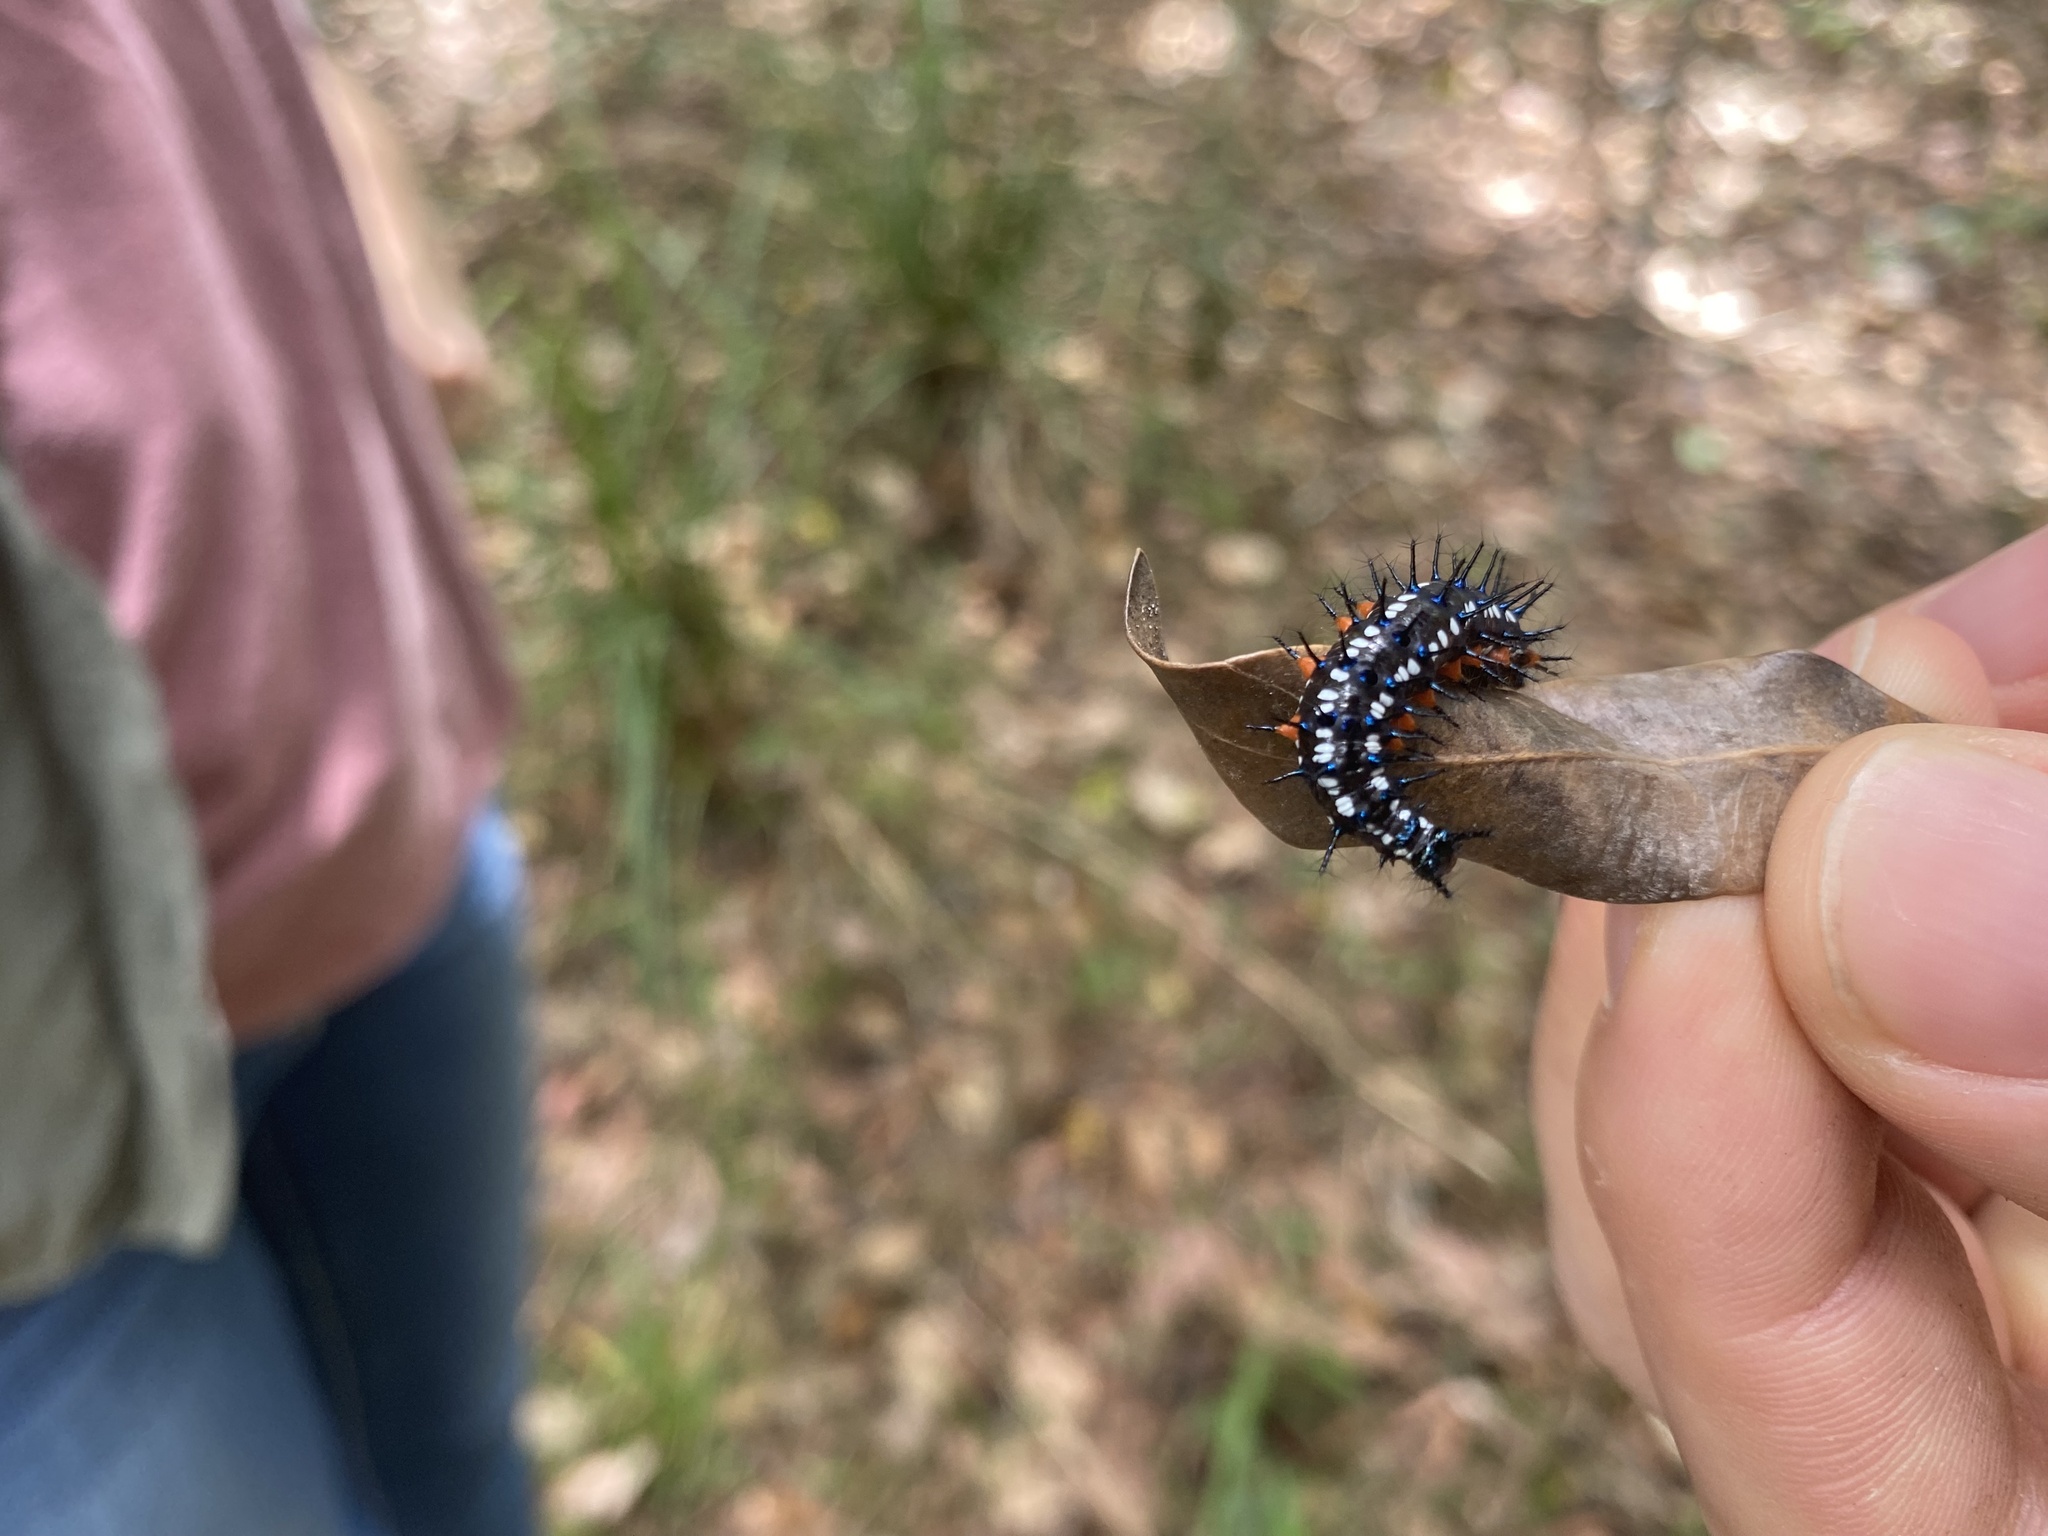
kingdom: Animalia
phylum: Arthropoda
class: Insecta
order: Lepidoptera
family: Nymphalidae
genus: Doleschallia
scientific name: Doleschallia bisaltide
